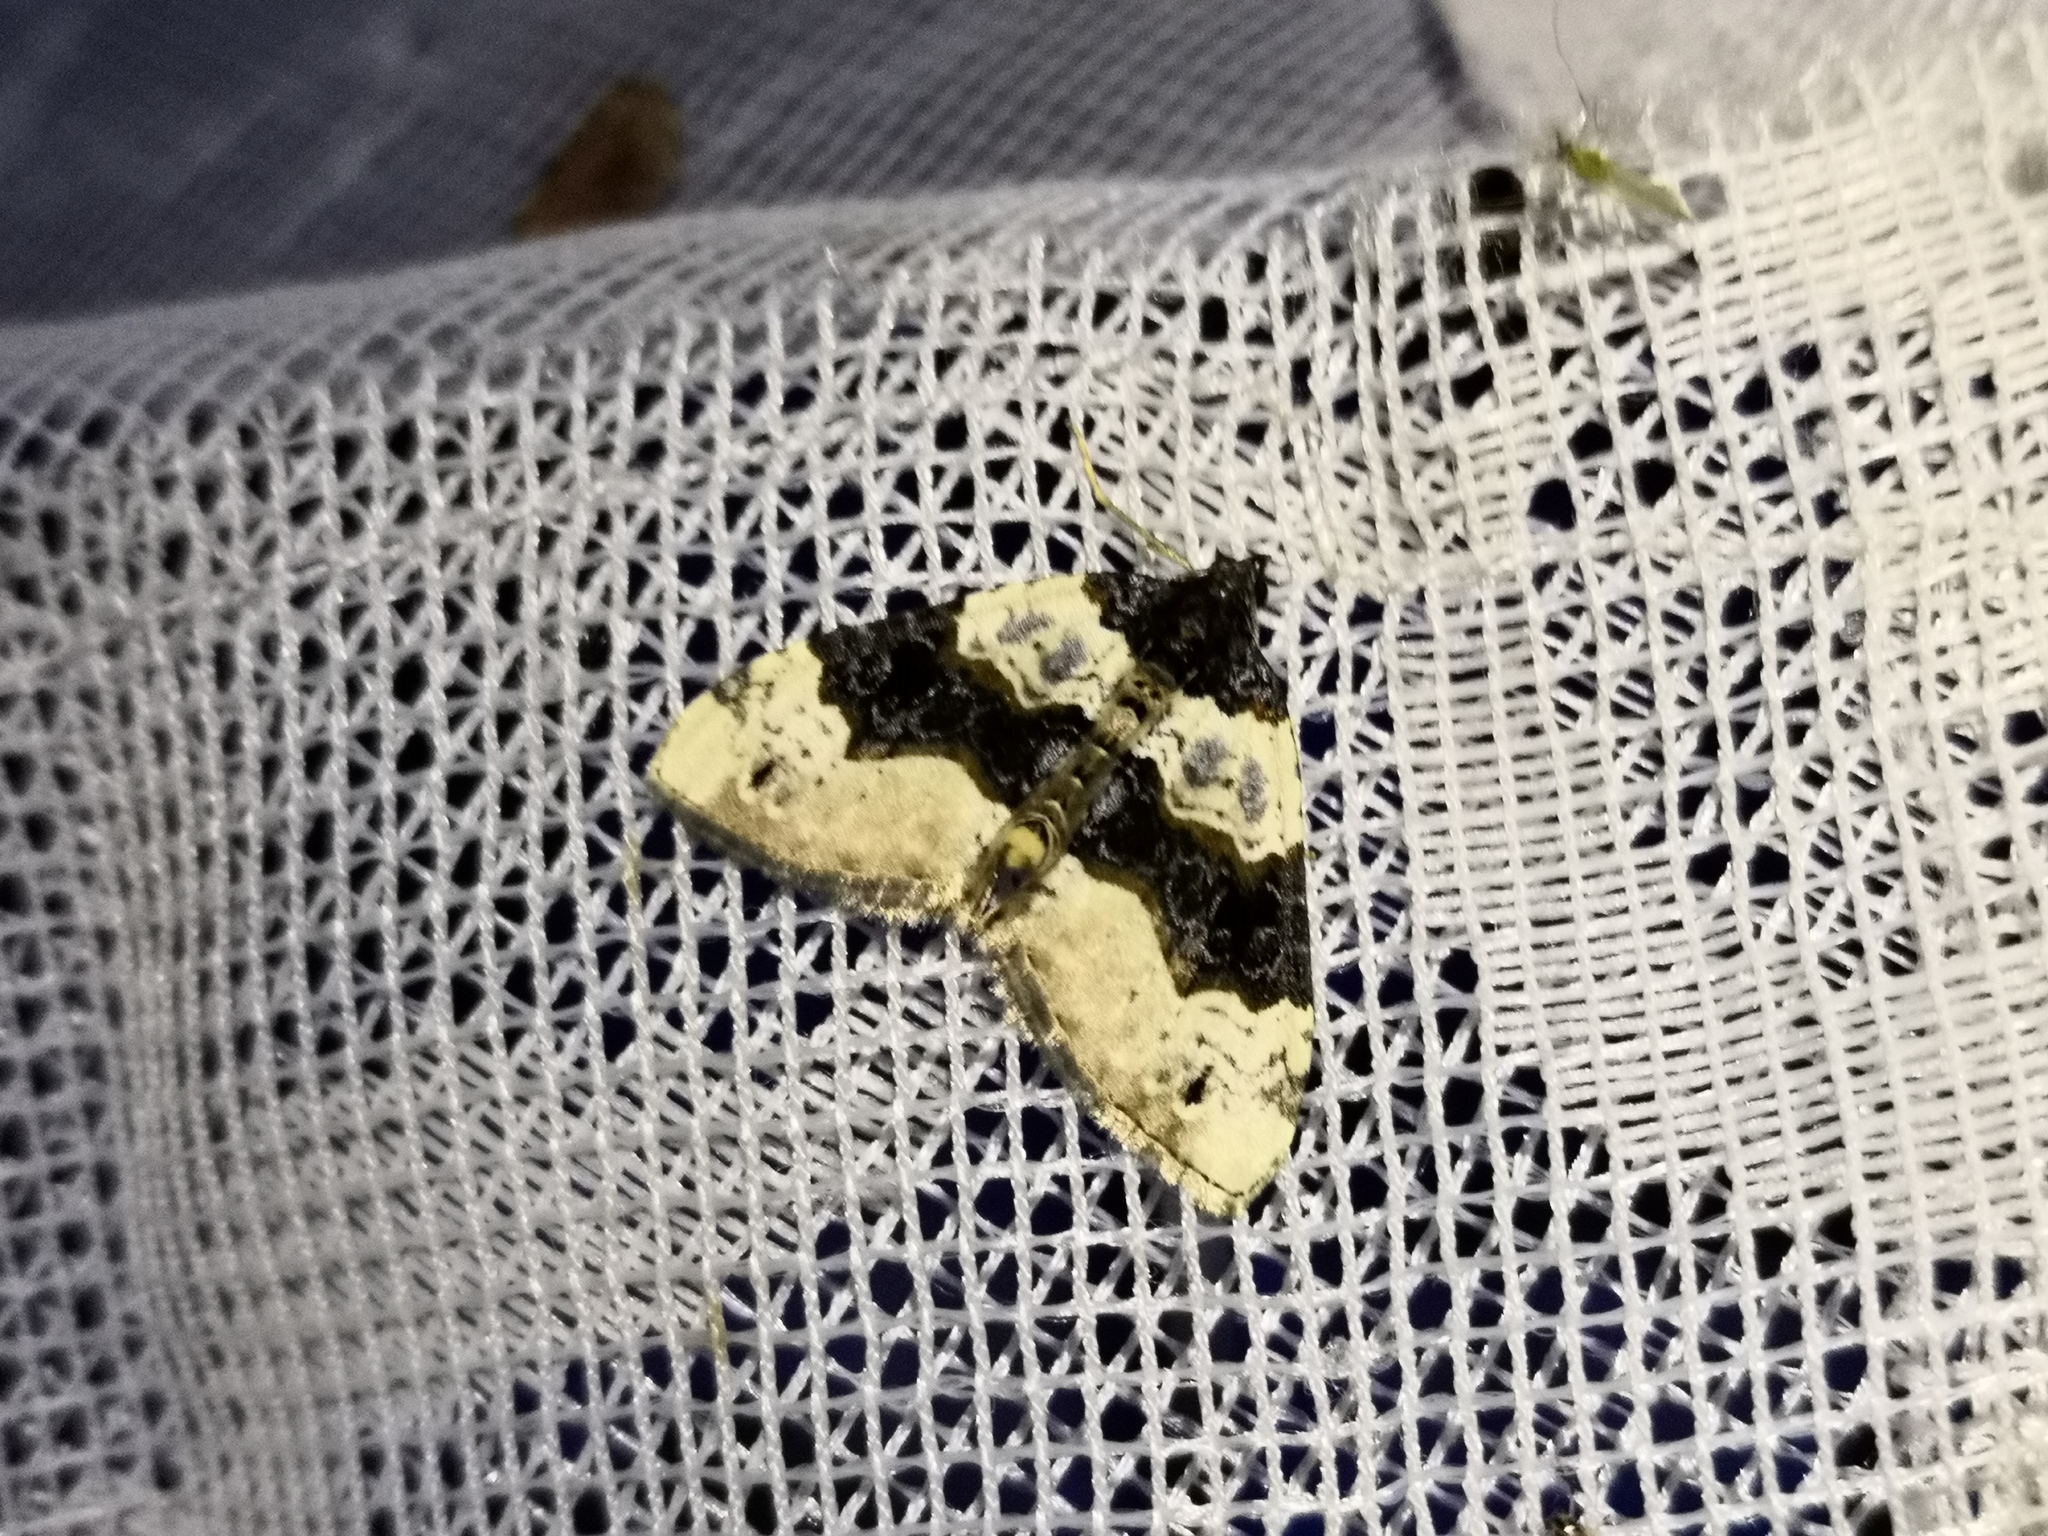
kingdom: Animalia
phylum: Arthropoda
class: Insecta
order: Lepidoptera
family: Geometridae
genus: Cosmorhoe
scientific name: Cosmorhoe ocellata
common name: Purple bar
